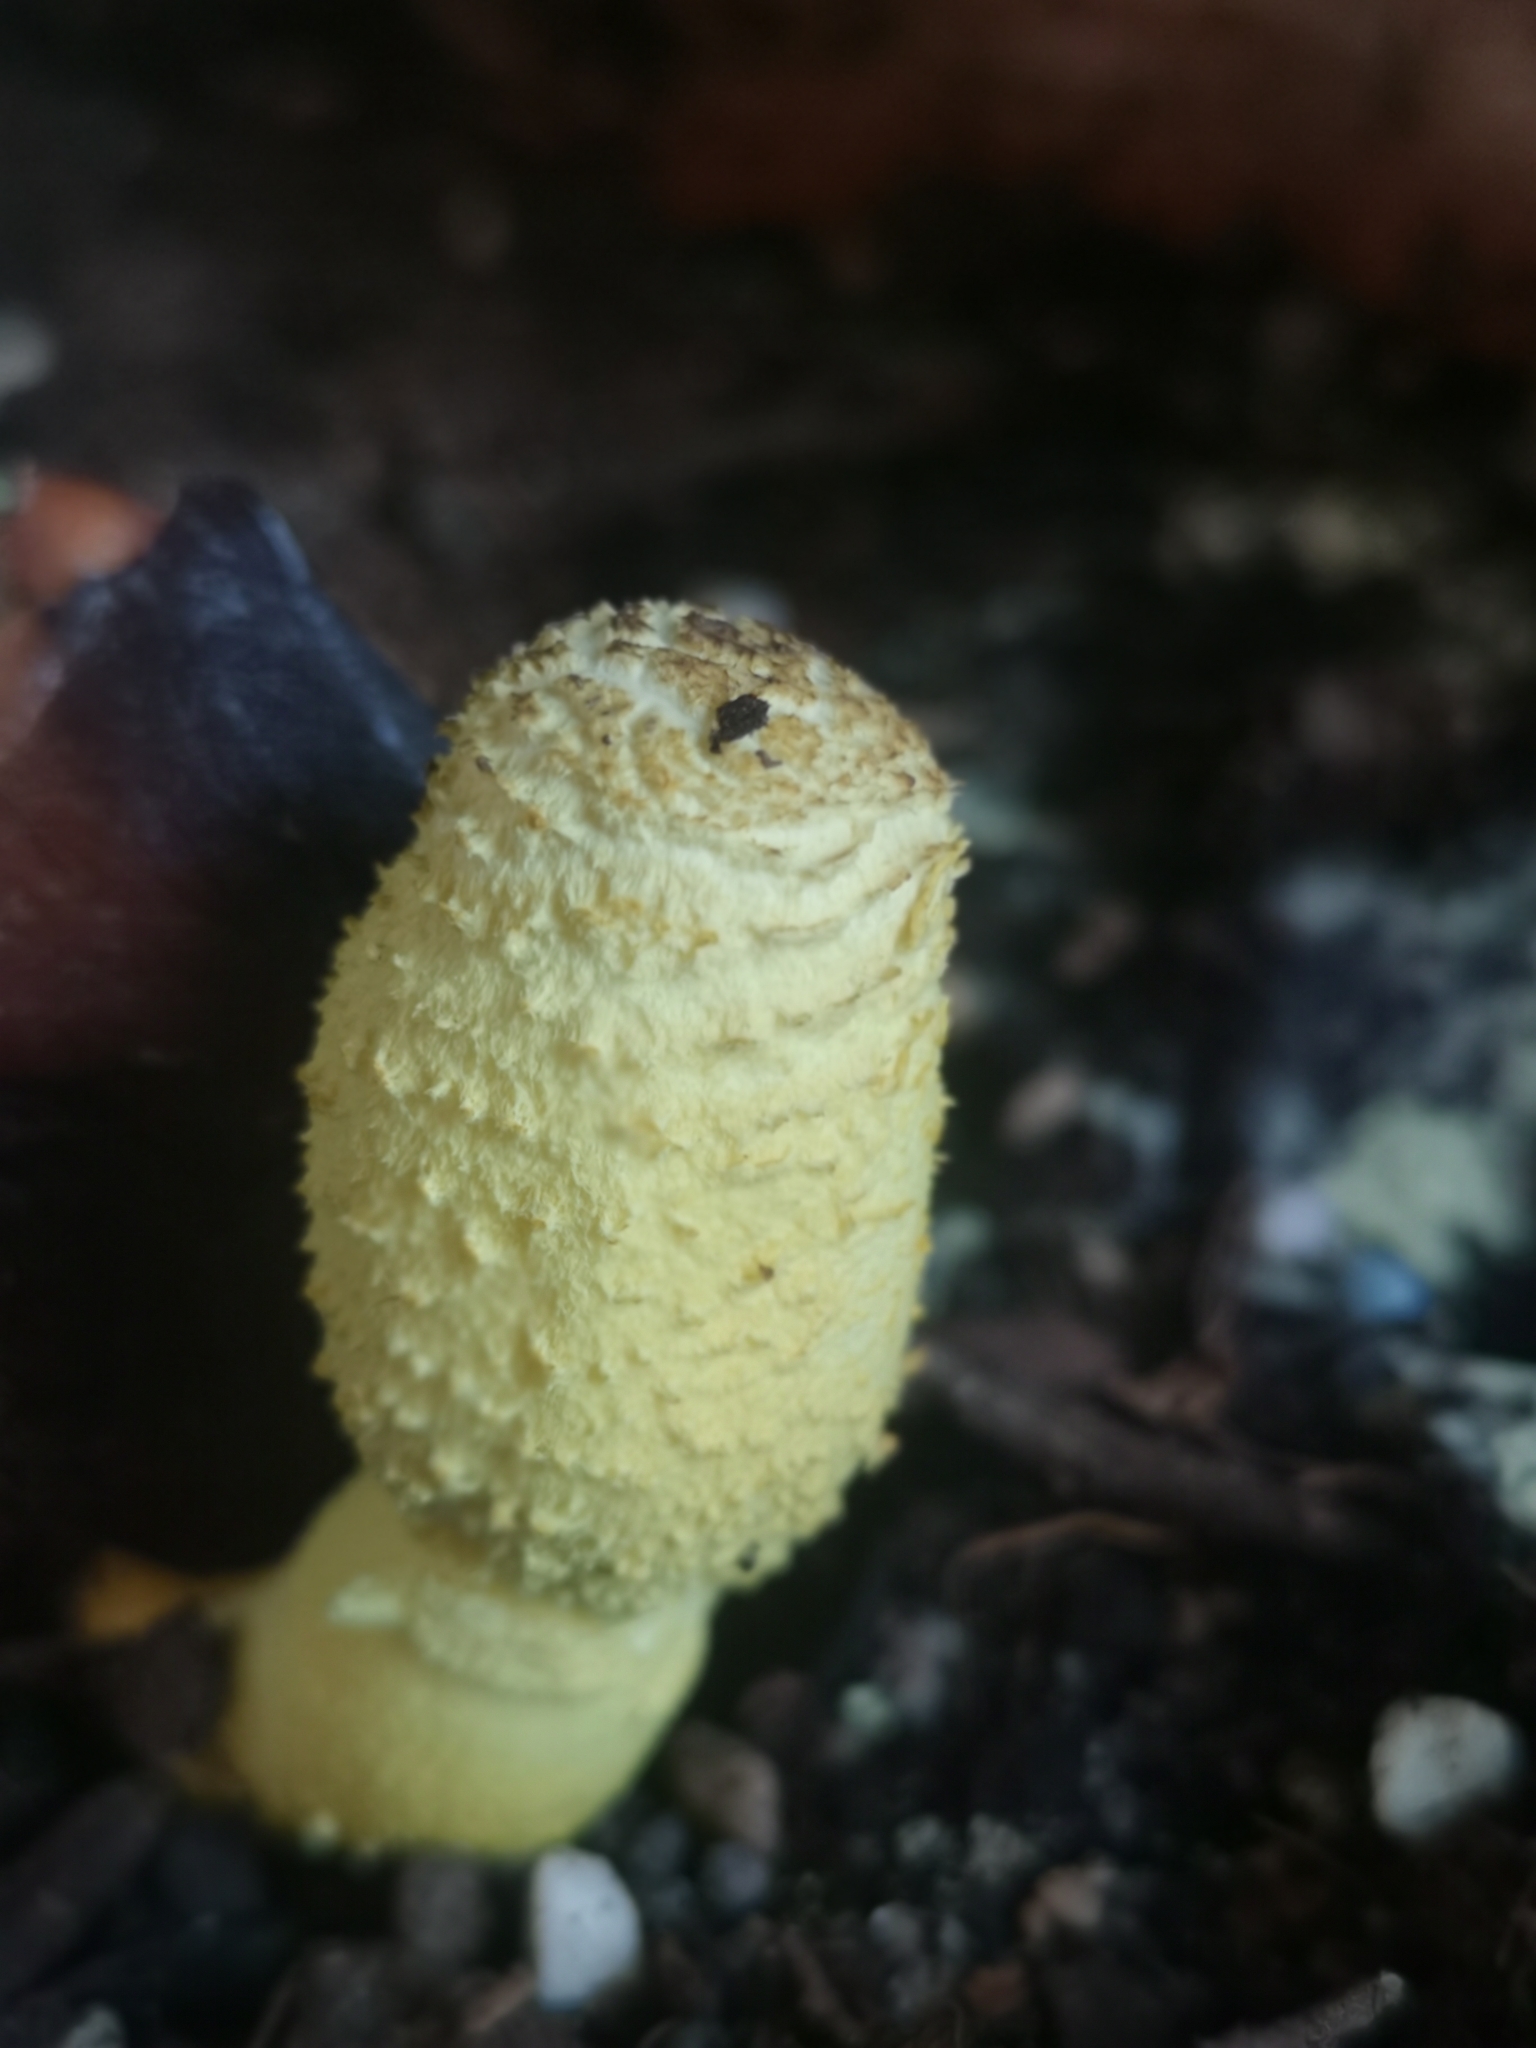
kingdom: Fungi
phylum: Basidiomycota
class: Agaricomycetes
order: Agaricales
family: Agaricaceae
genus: Leucocoprinus
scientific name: Leucocoprinus birnbaumii
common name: Plantpot dapperling
